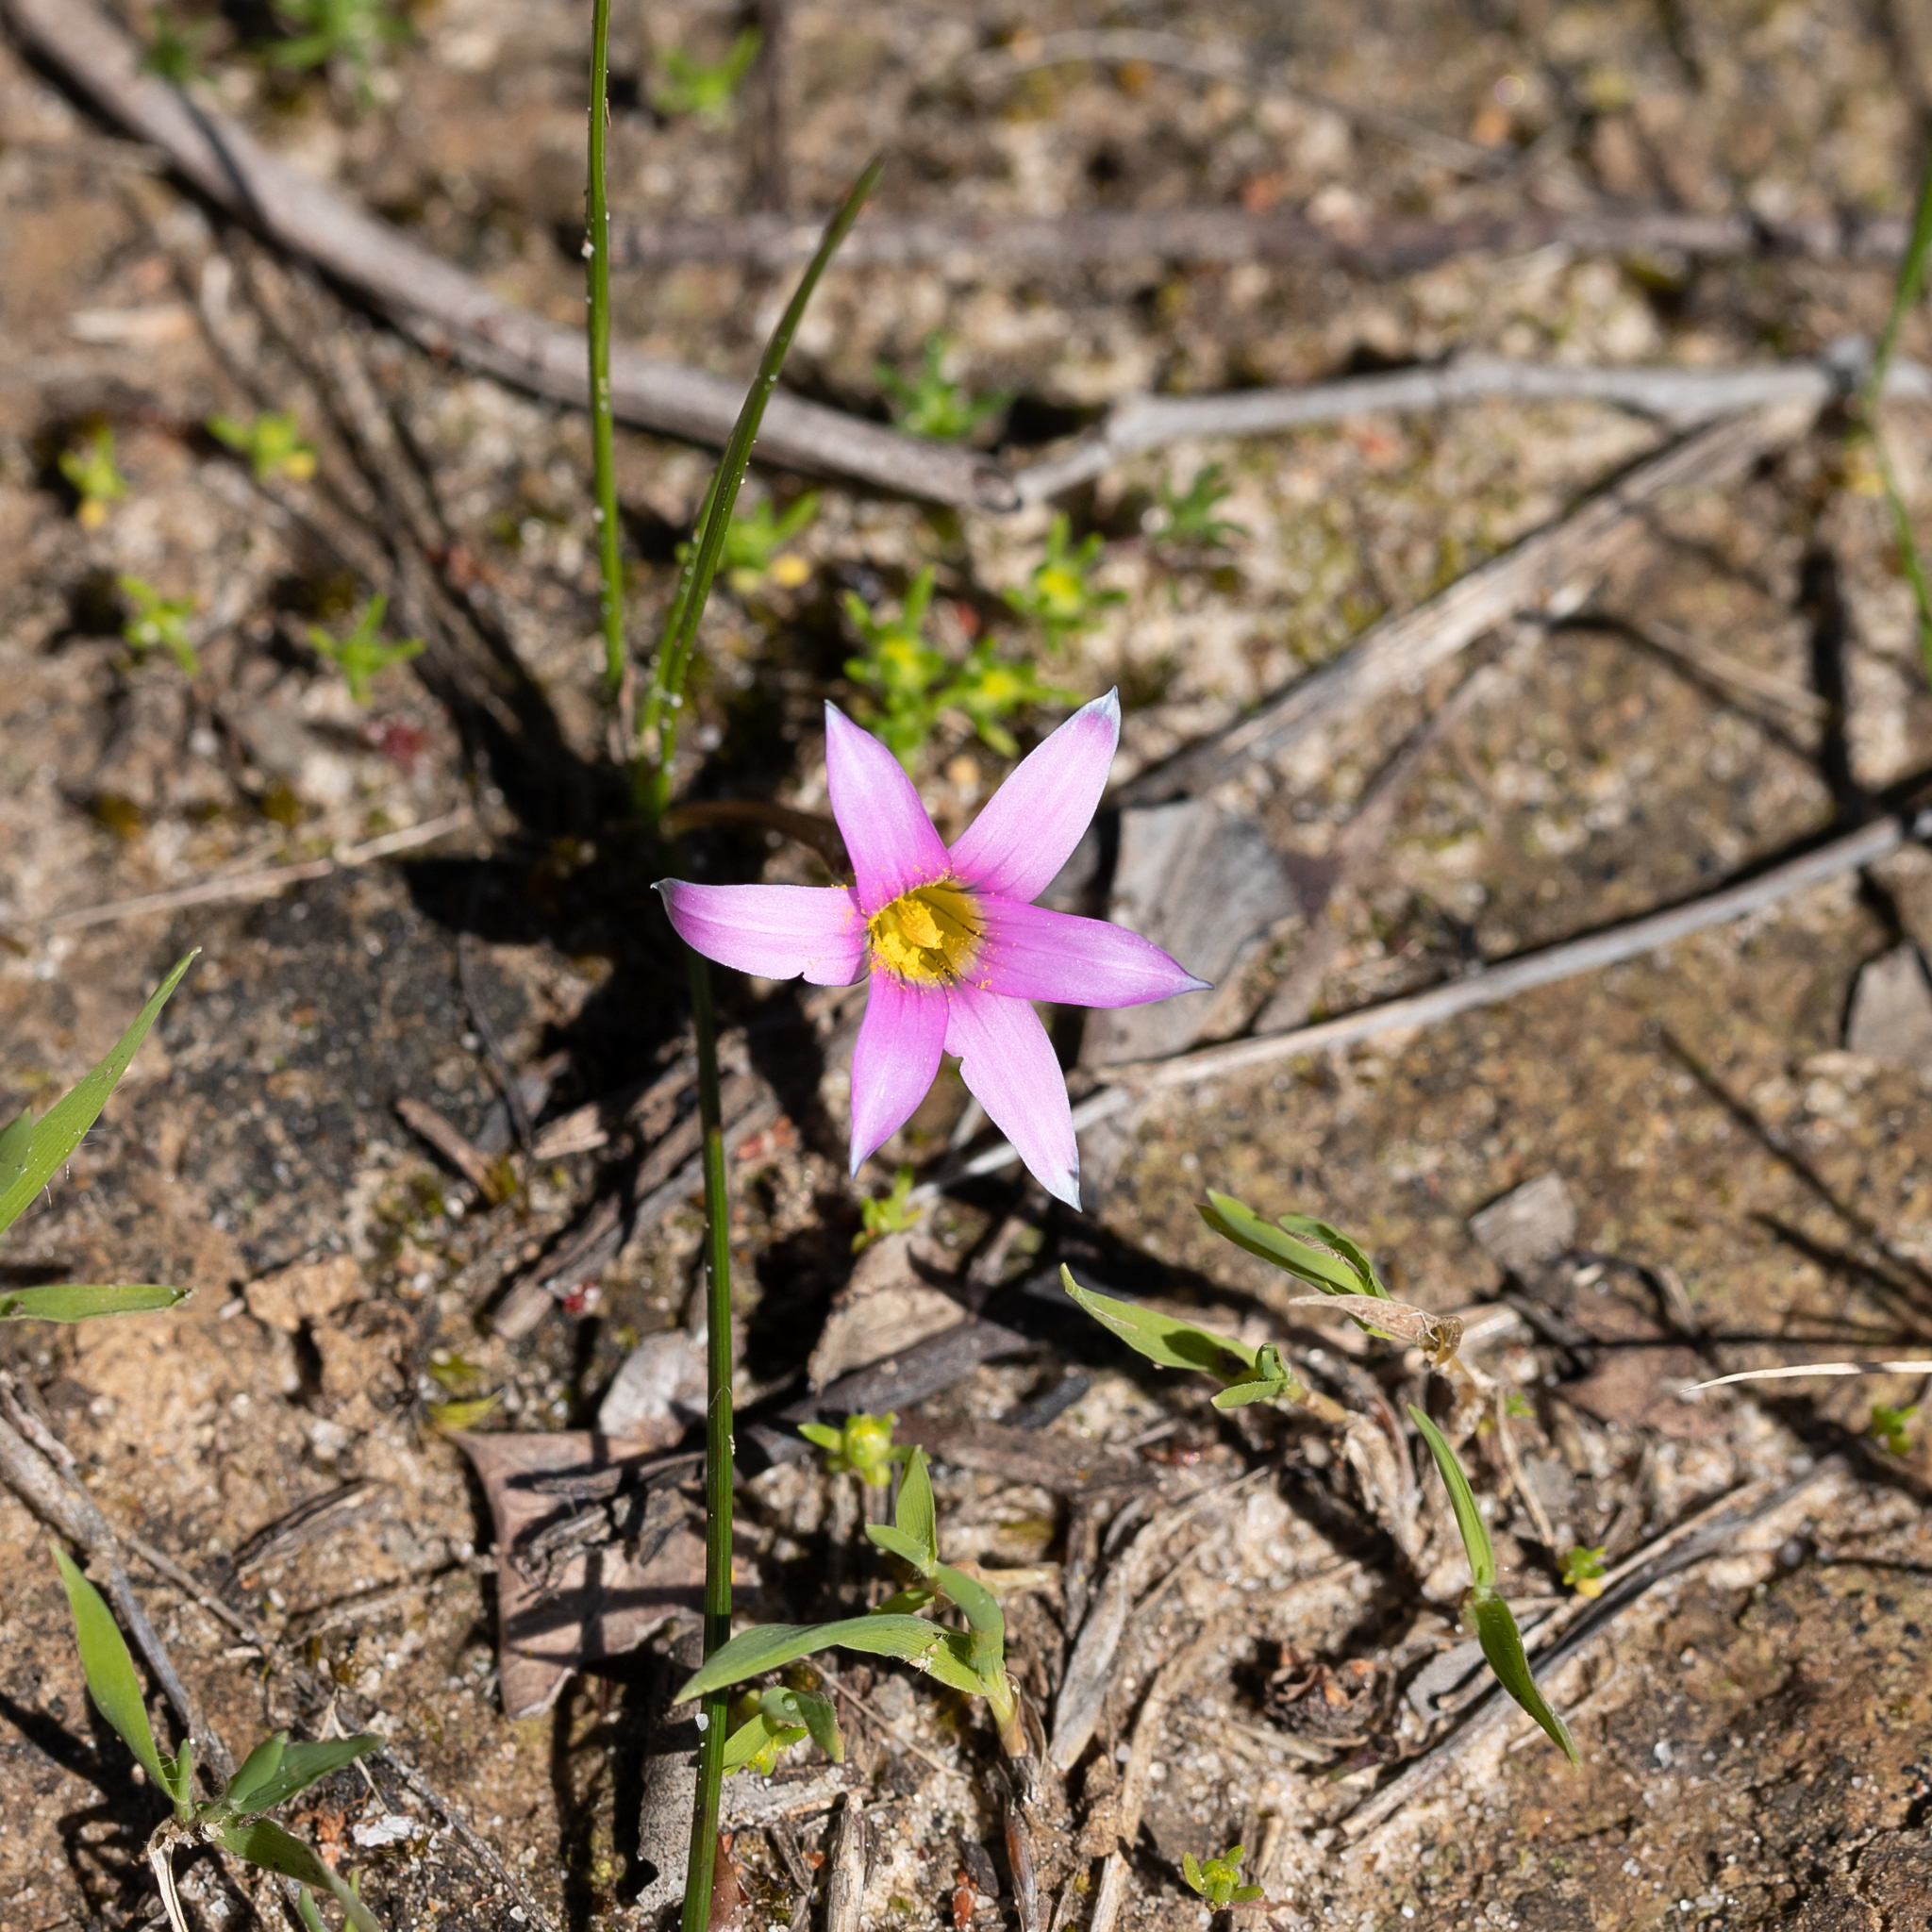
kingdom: Plantae
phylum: Tracheophyta
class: Liliopsida
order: Asparagales
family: Iridaceae
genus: Romulea
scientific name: Romulea rosea
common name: Oniongrass
